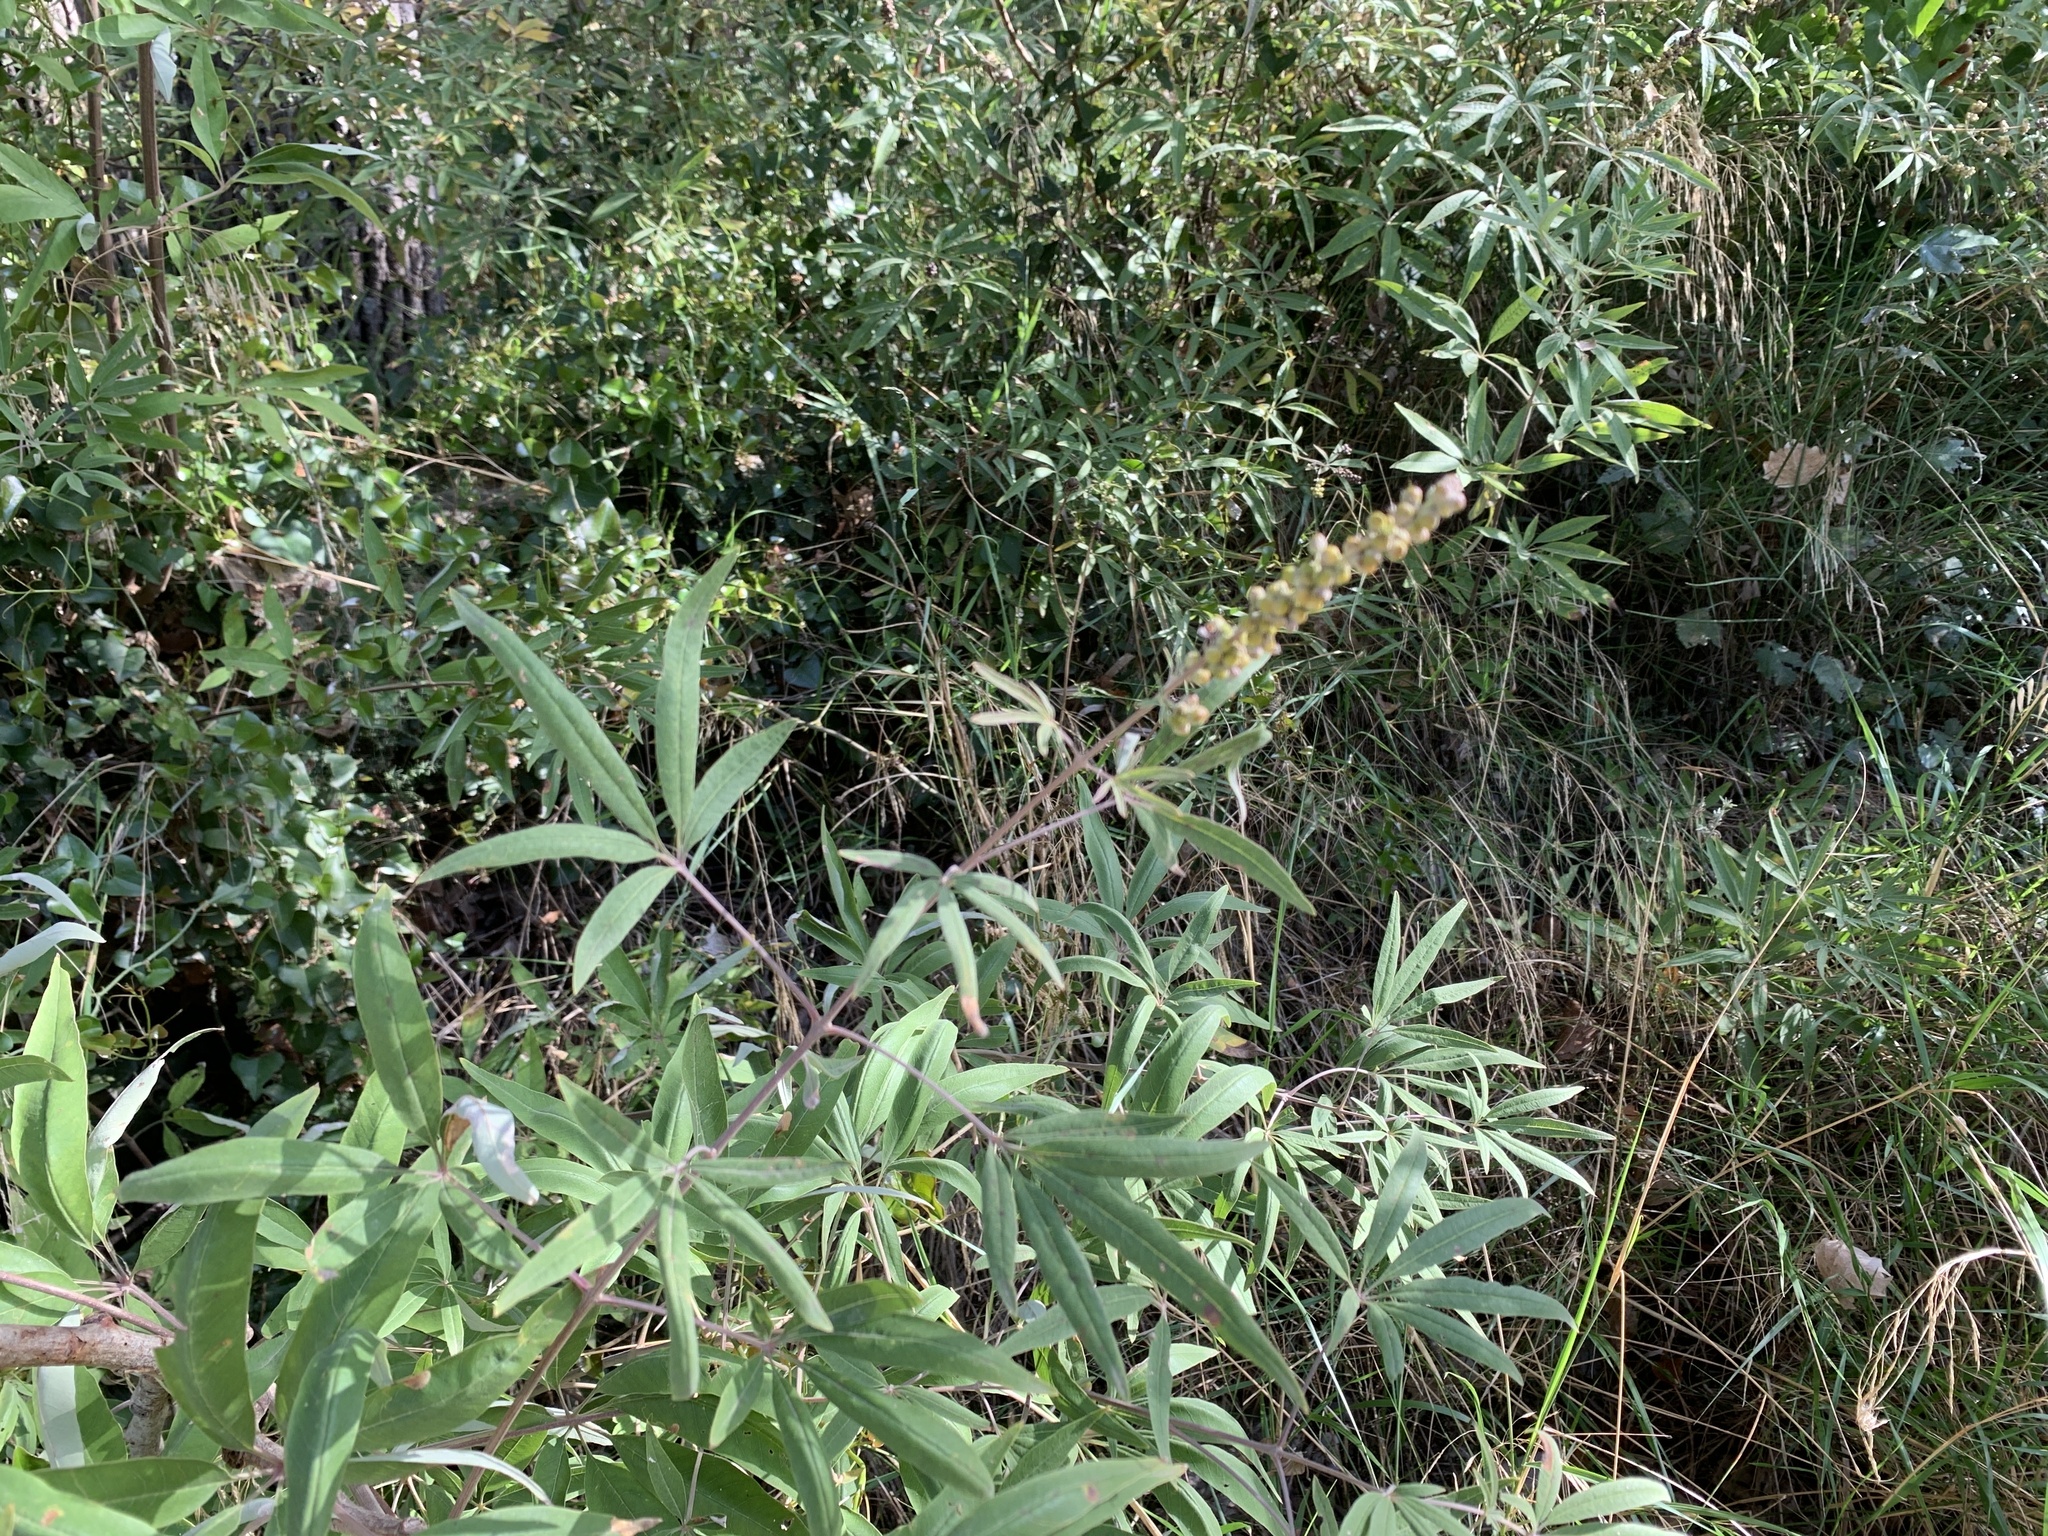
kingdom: Plantae
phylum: Tracheophyta
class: Magnoliopsida
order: Lamiales
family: Lamiaceae
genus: Vitex
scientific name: Vitex agnus-castus
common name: Chasteberry
